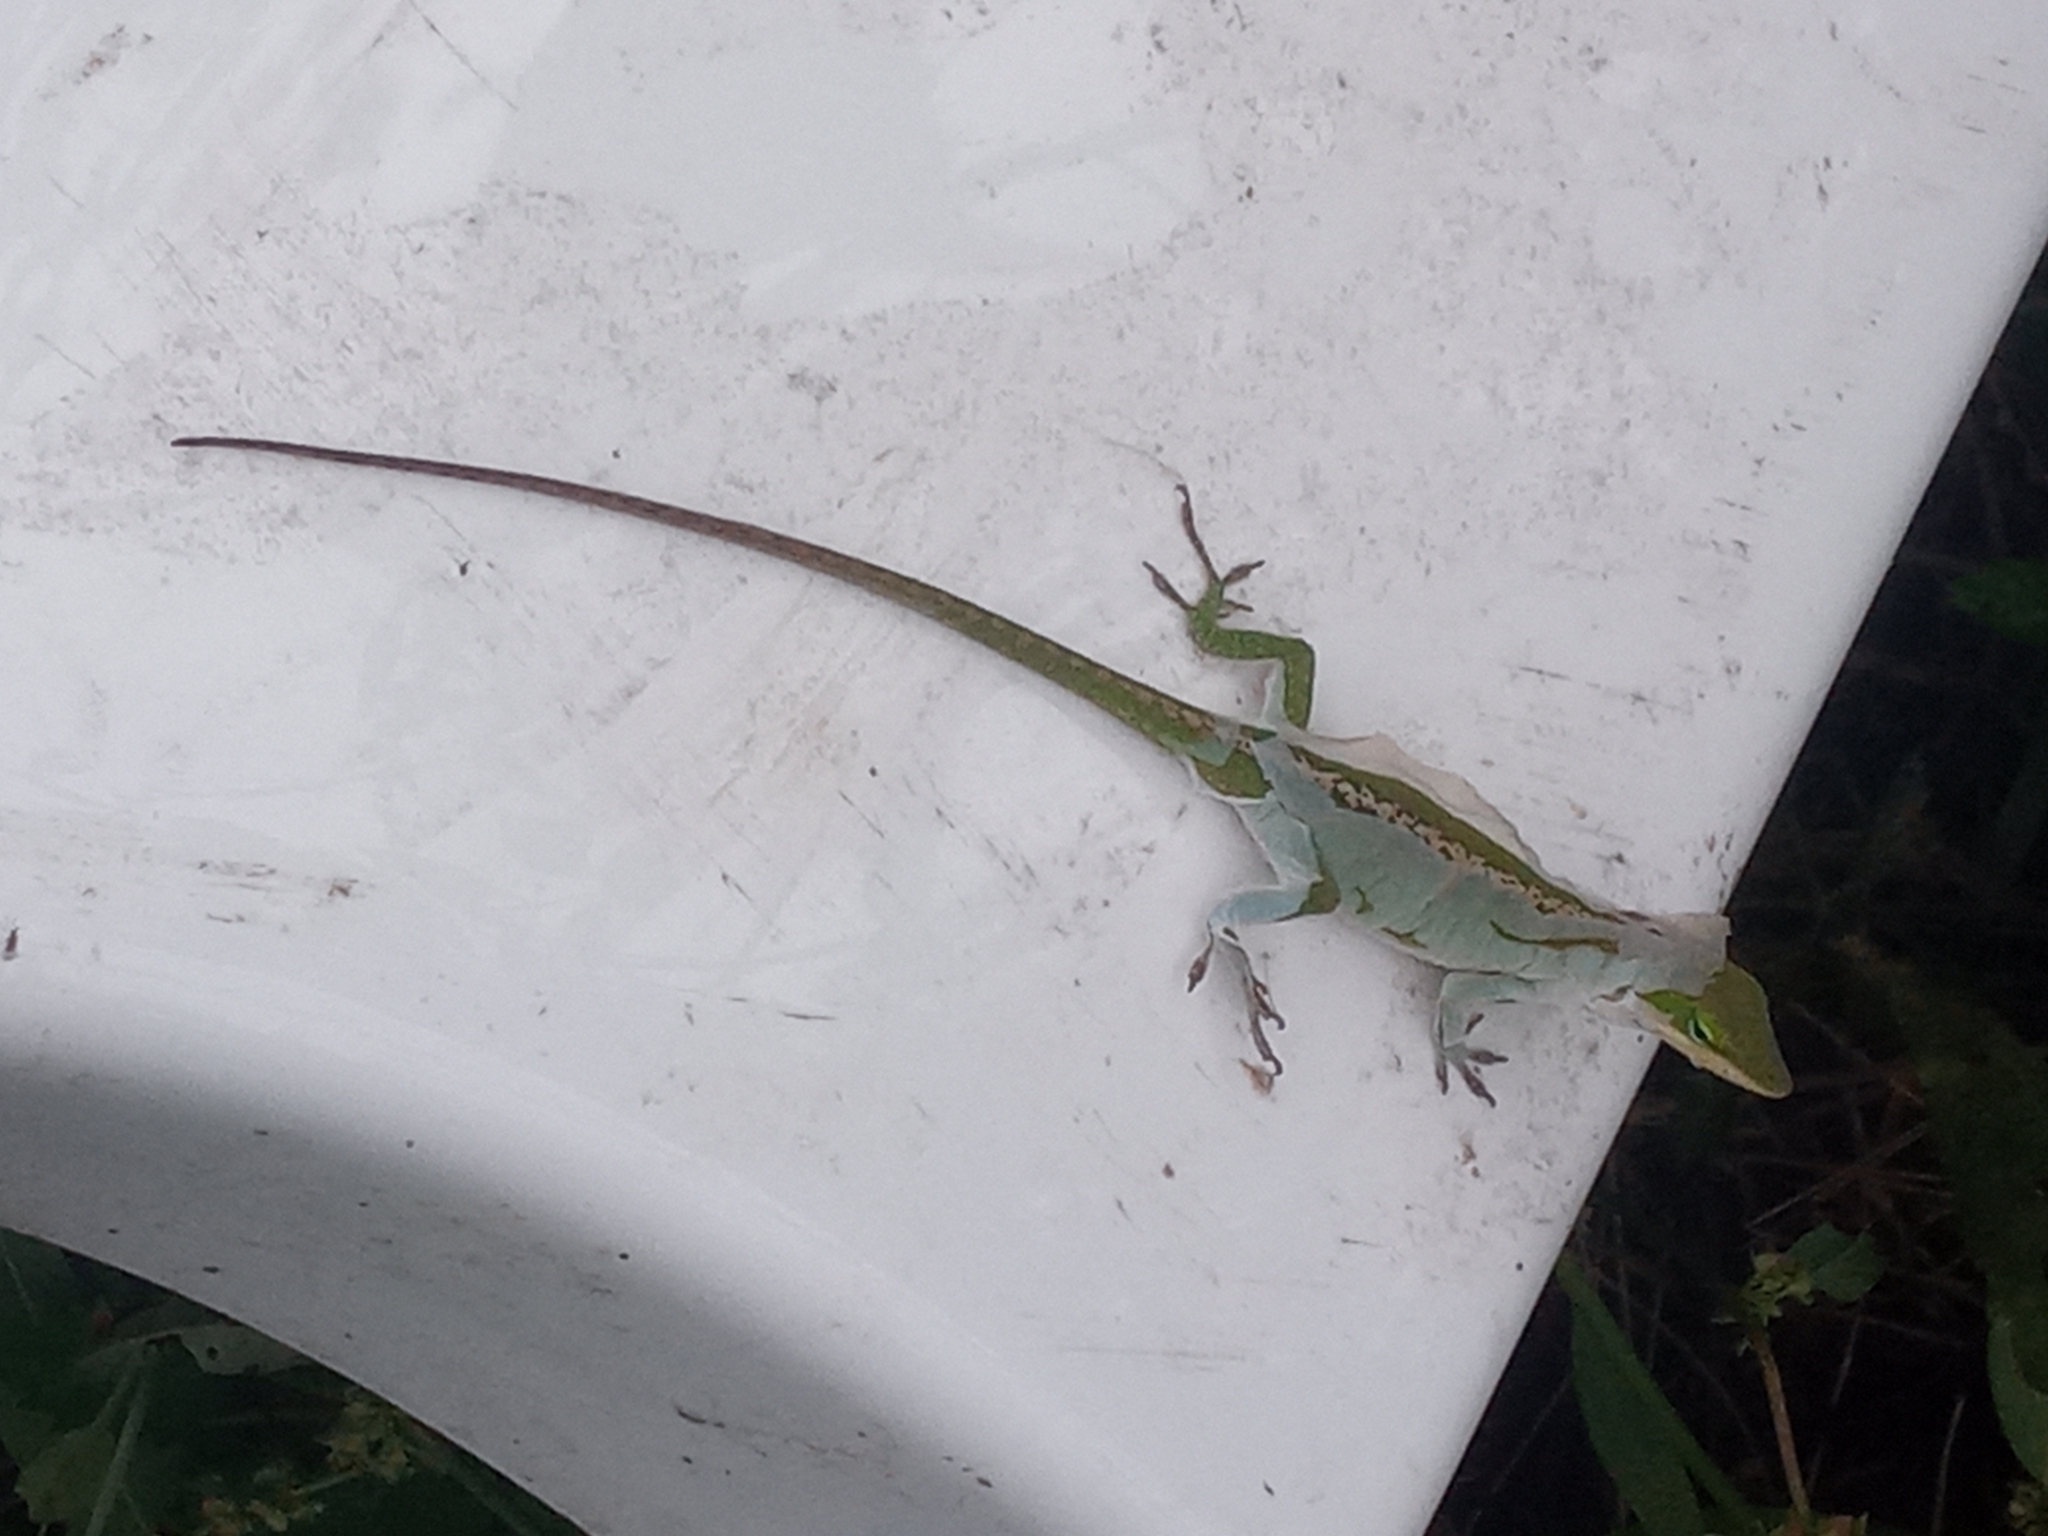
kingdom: Animalia
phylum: Chordata
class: Squamata
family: Dactyloidae
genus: Anolis
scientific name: Anolis carolinensis
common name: Green anole
